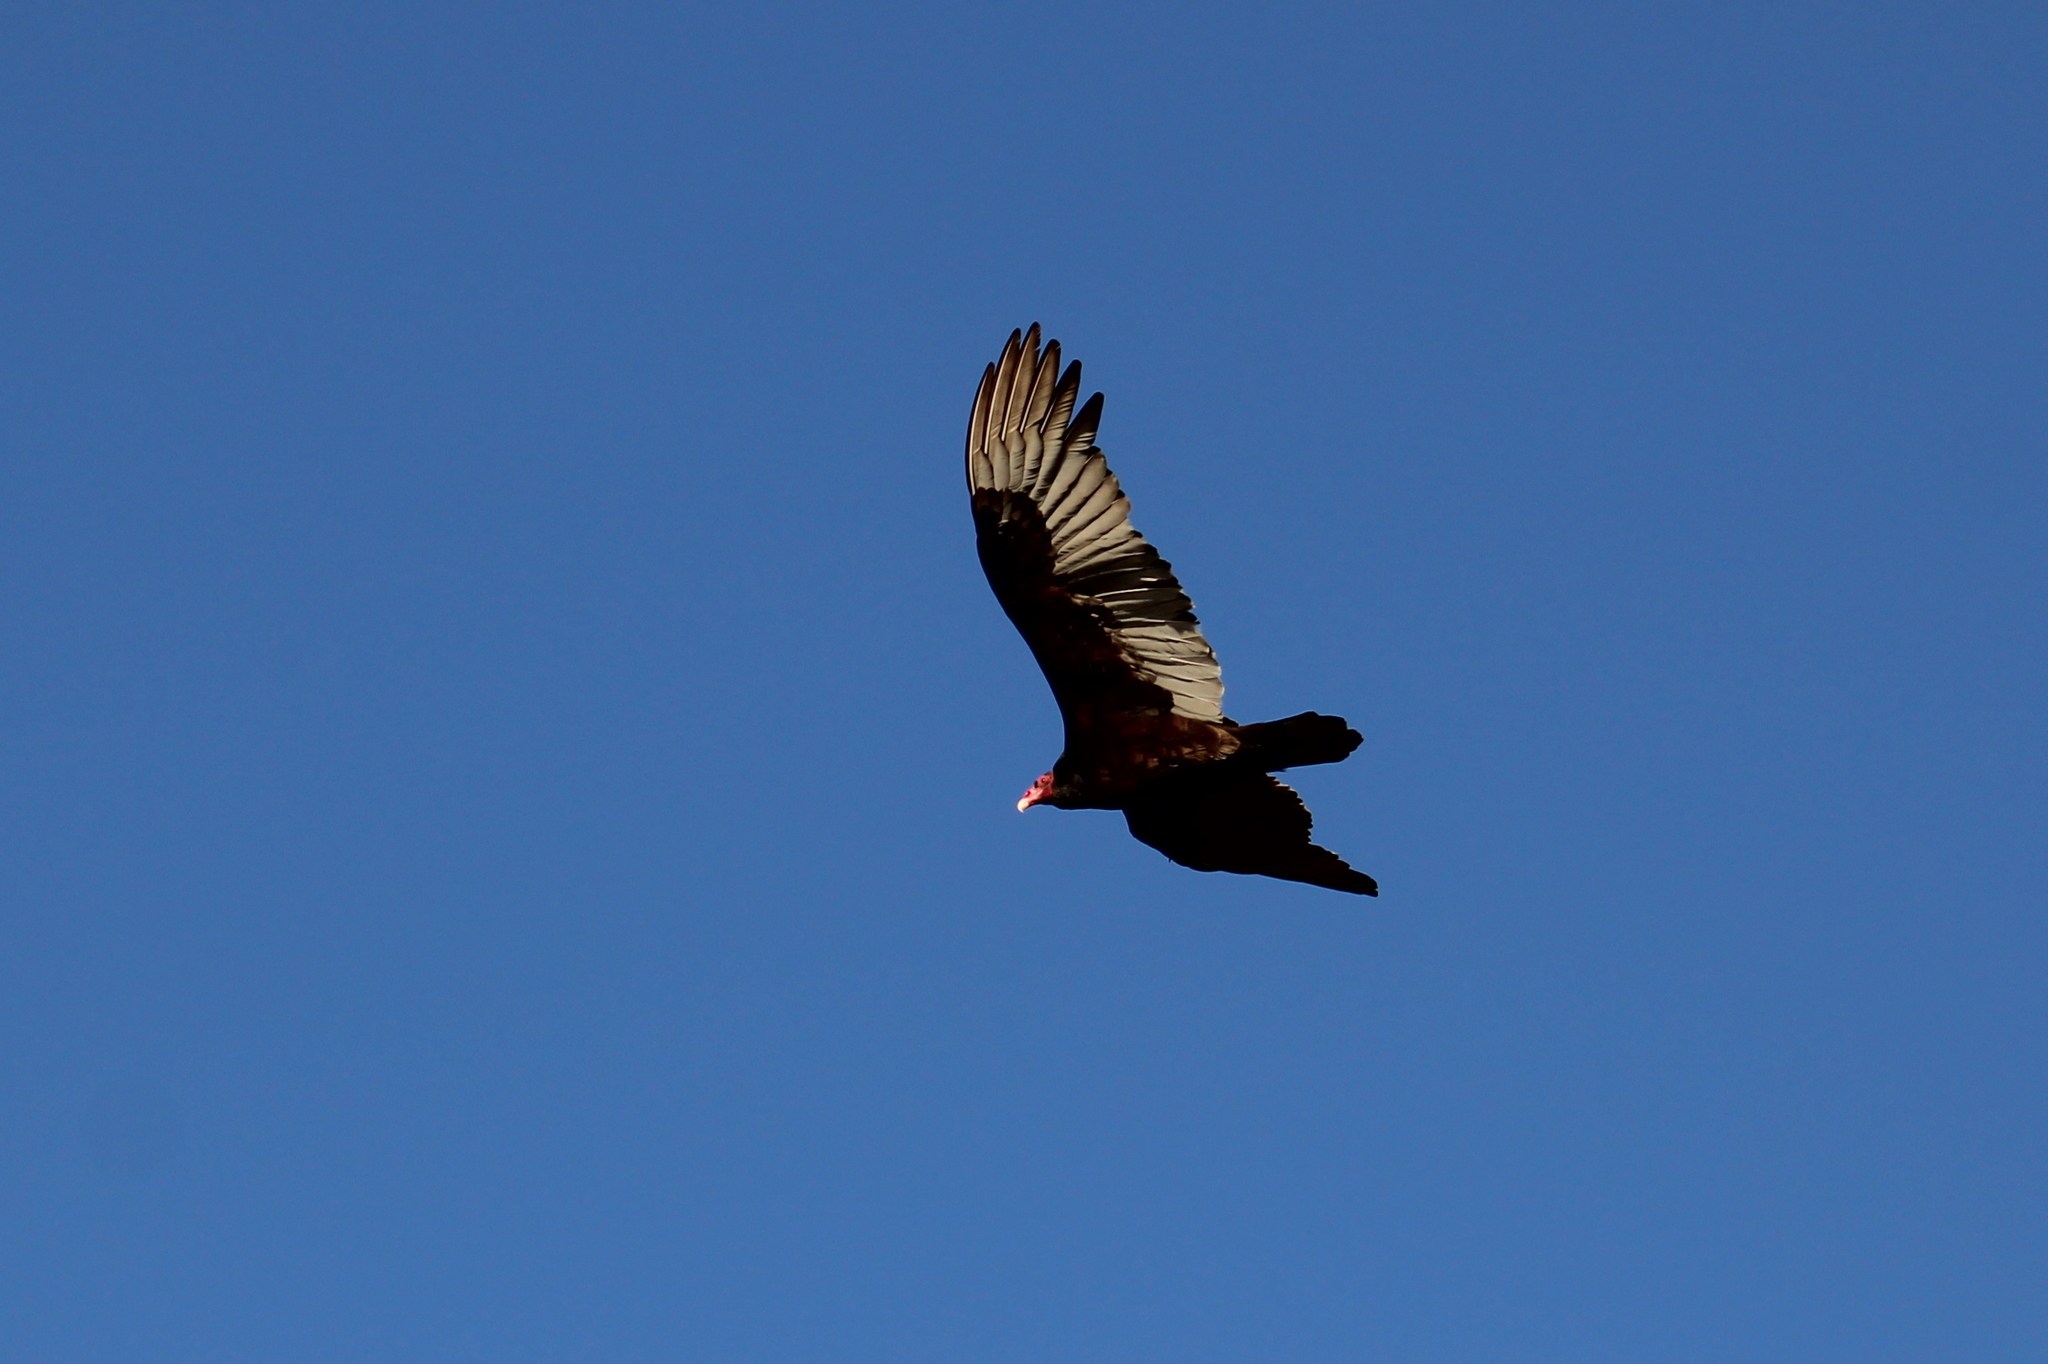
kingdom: Animalia
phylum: Chordata
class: Aves
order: Accipitriformes
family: Cathartidae
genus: Cathartes
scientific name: Cathartes aura
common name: Turkey vulture
